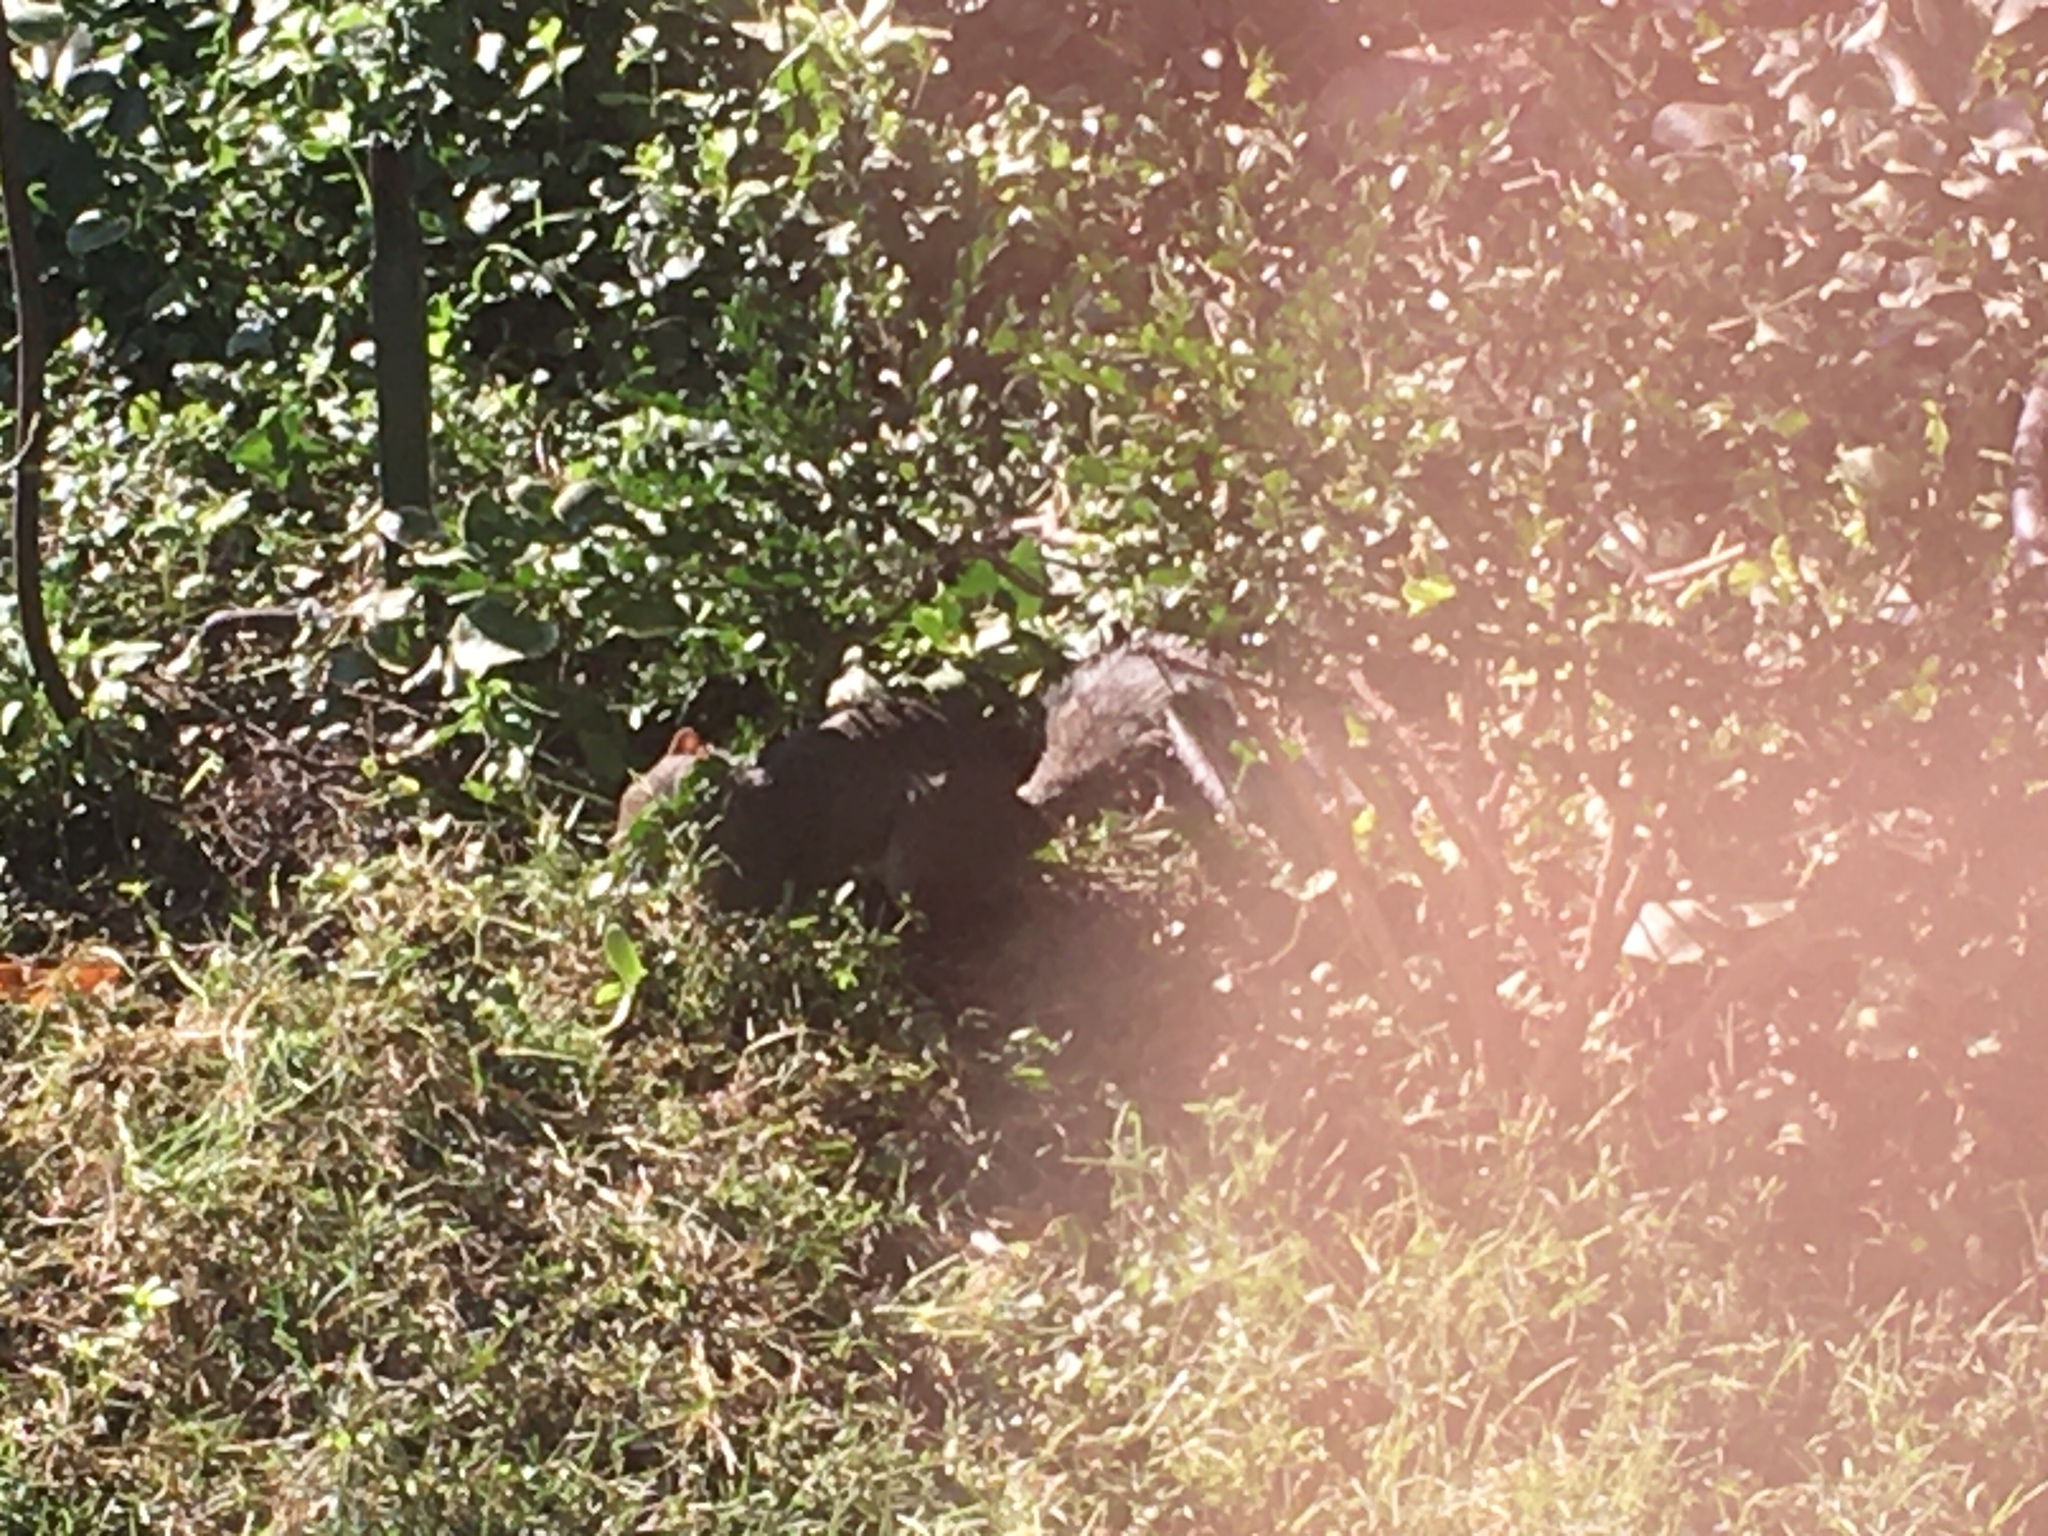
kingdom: Animalia
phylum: Chordata
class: Mammalia
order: Rodentia
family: Sciuridae
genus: Sciurus
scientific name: Sciurus carolinensis
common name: Eastern gray squirrel
